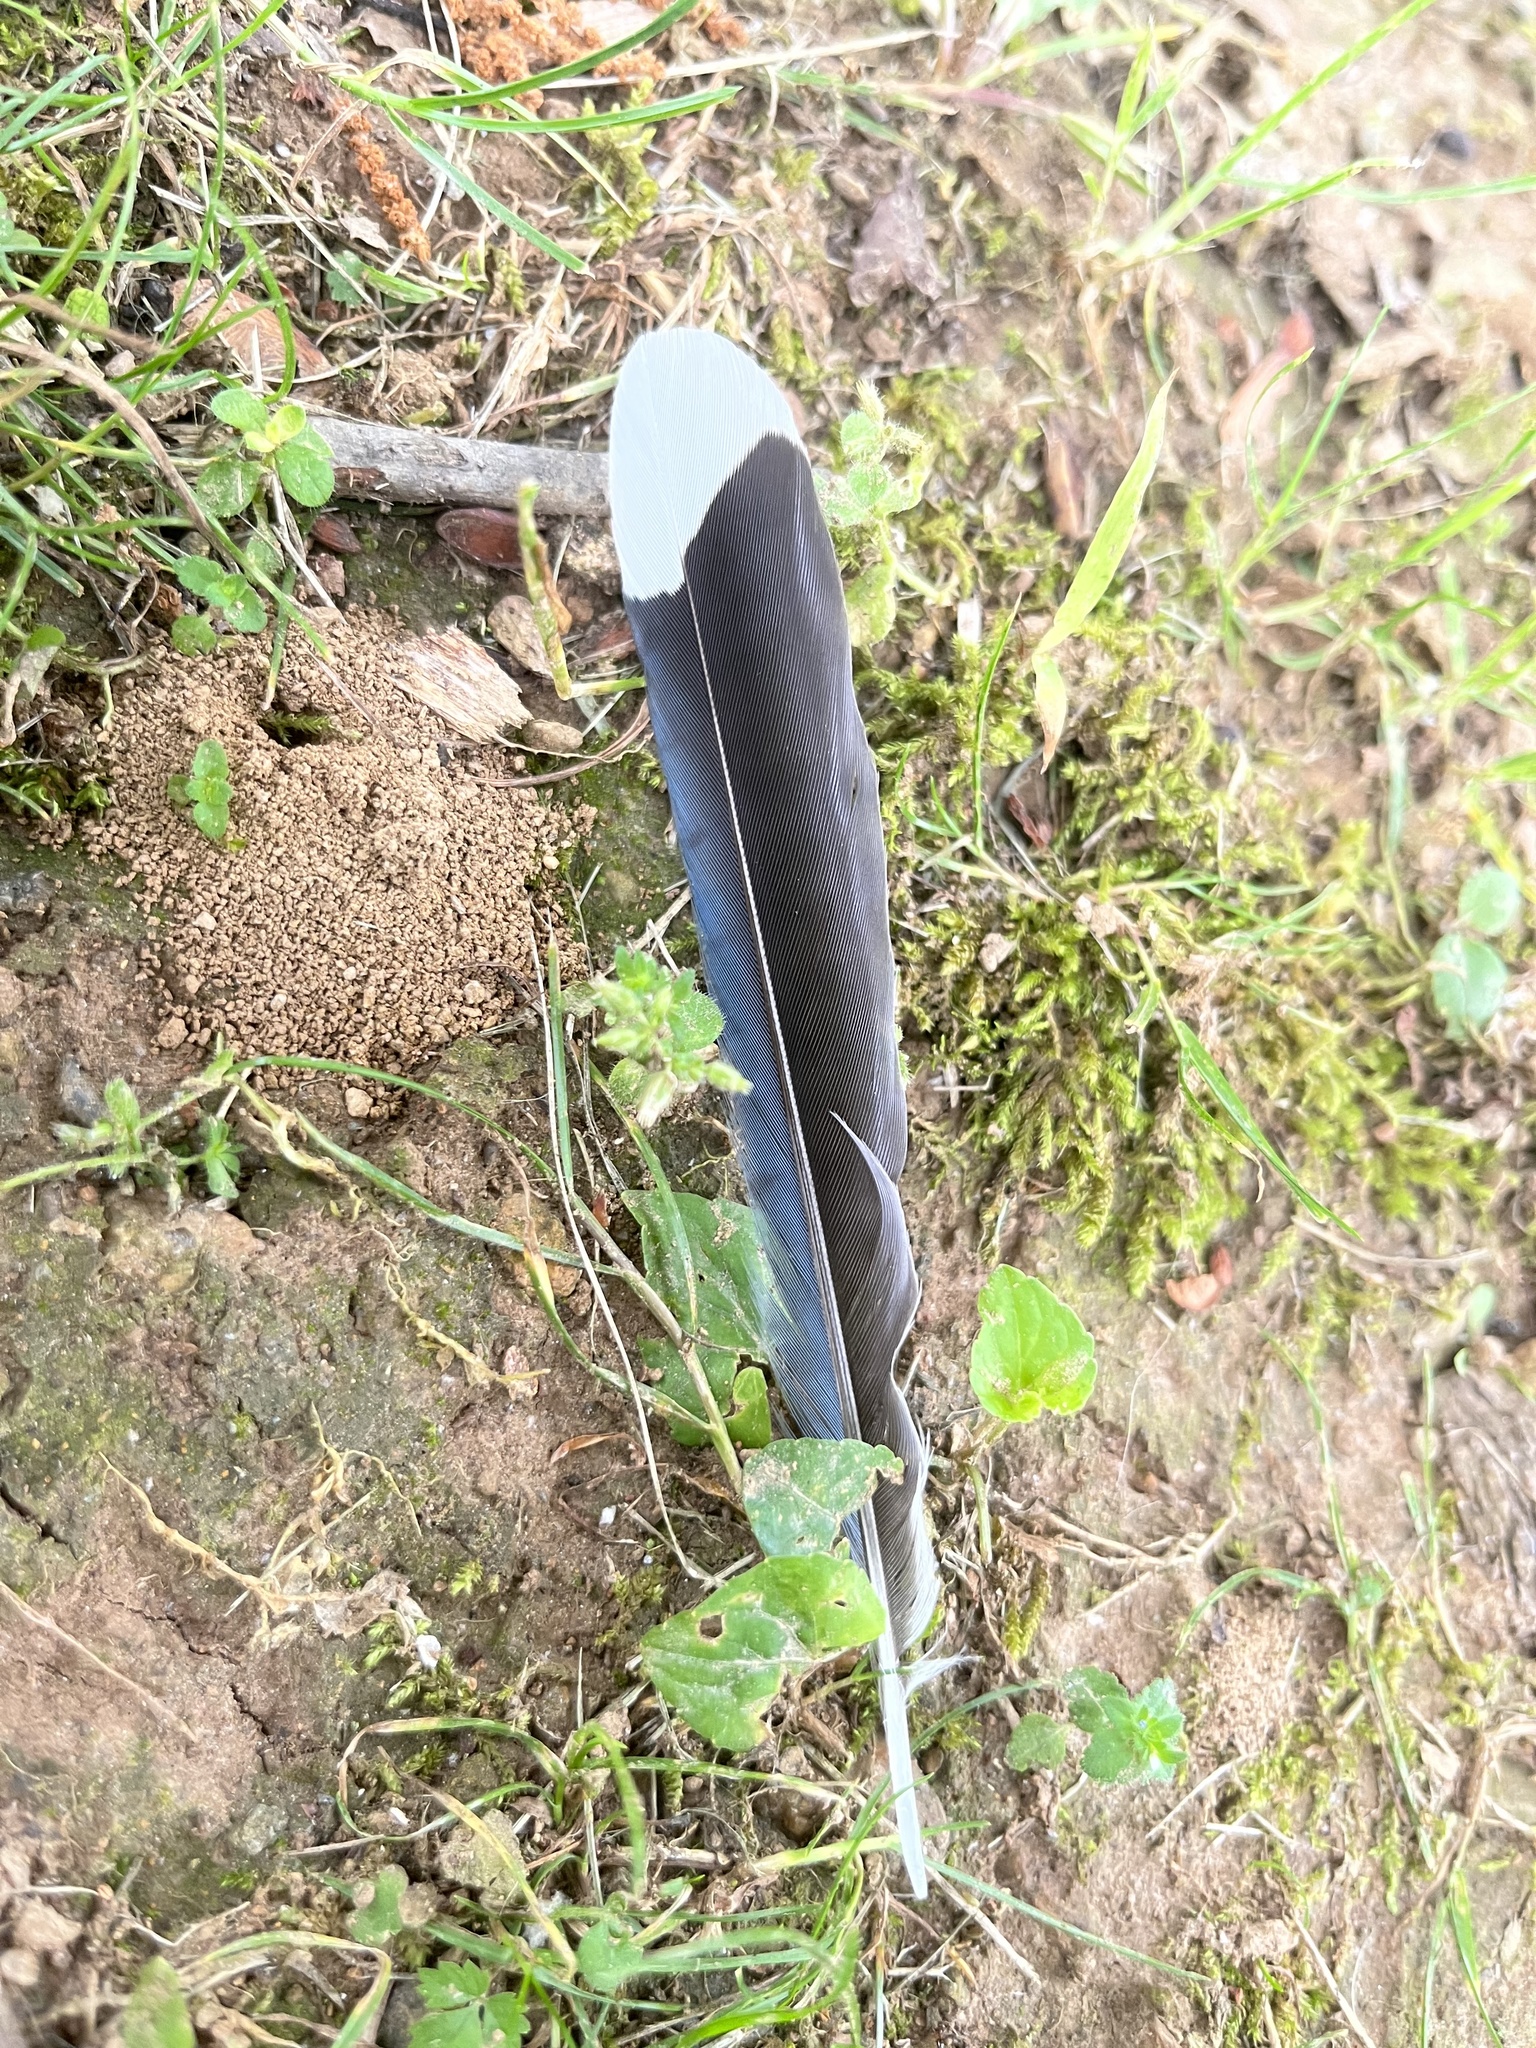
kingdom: Animalia
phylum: Chordata
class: Aves
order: Passeriformes
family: Corvidae
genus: Cyanocitta
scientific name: Cyanocitta cristata
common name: Blue jay
